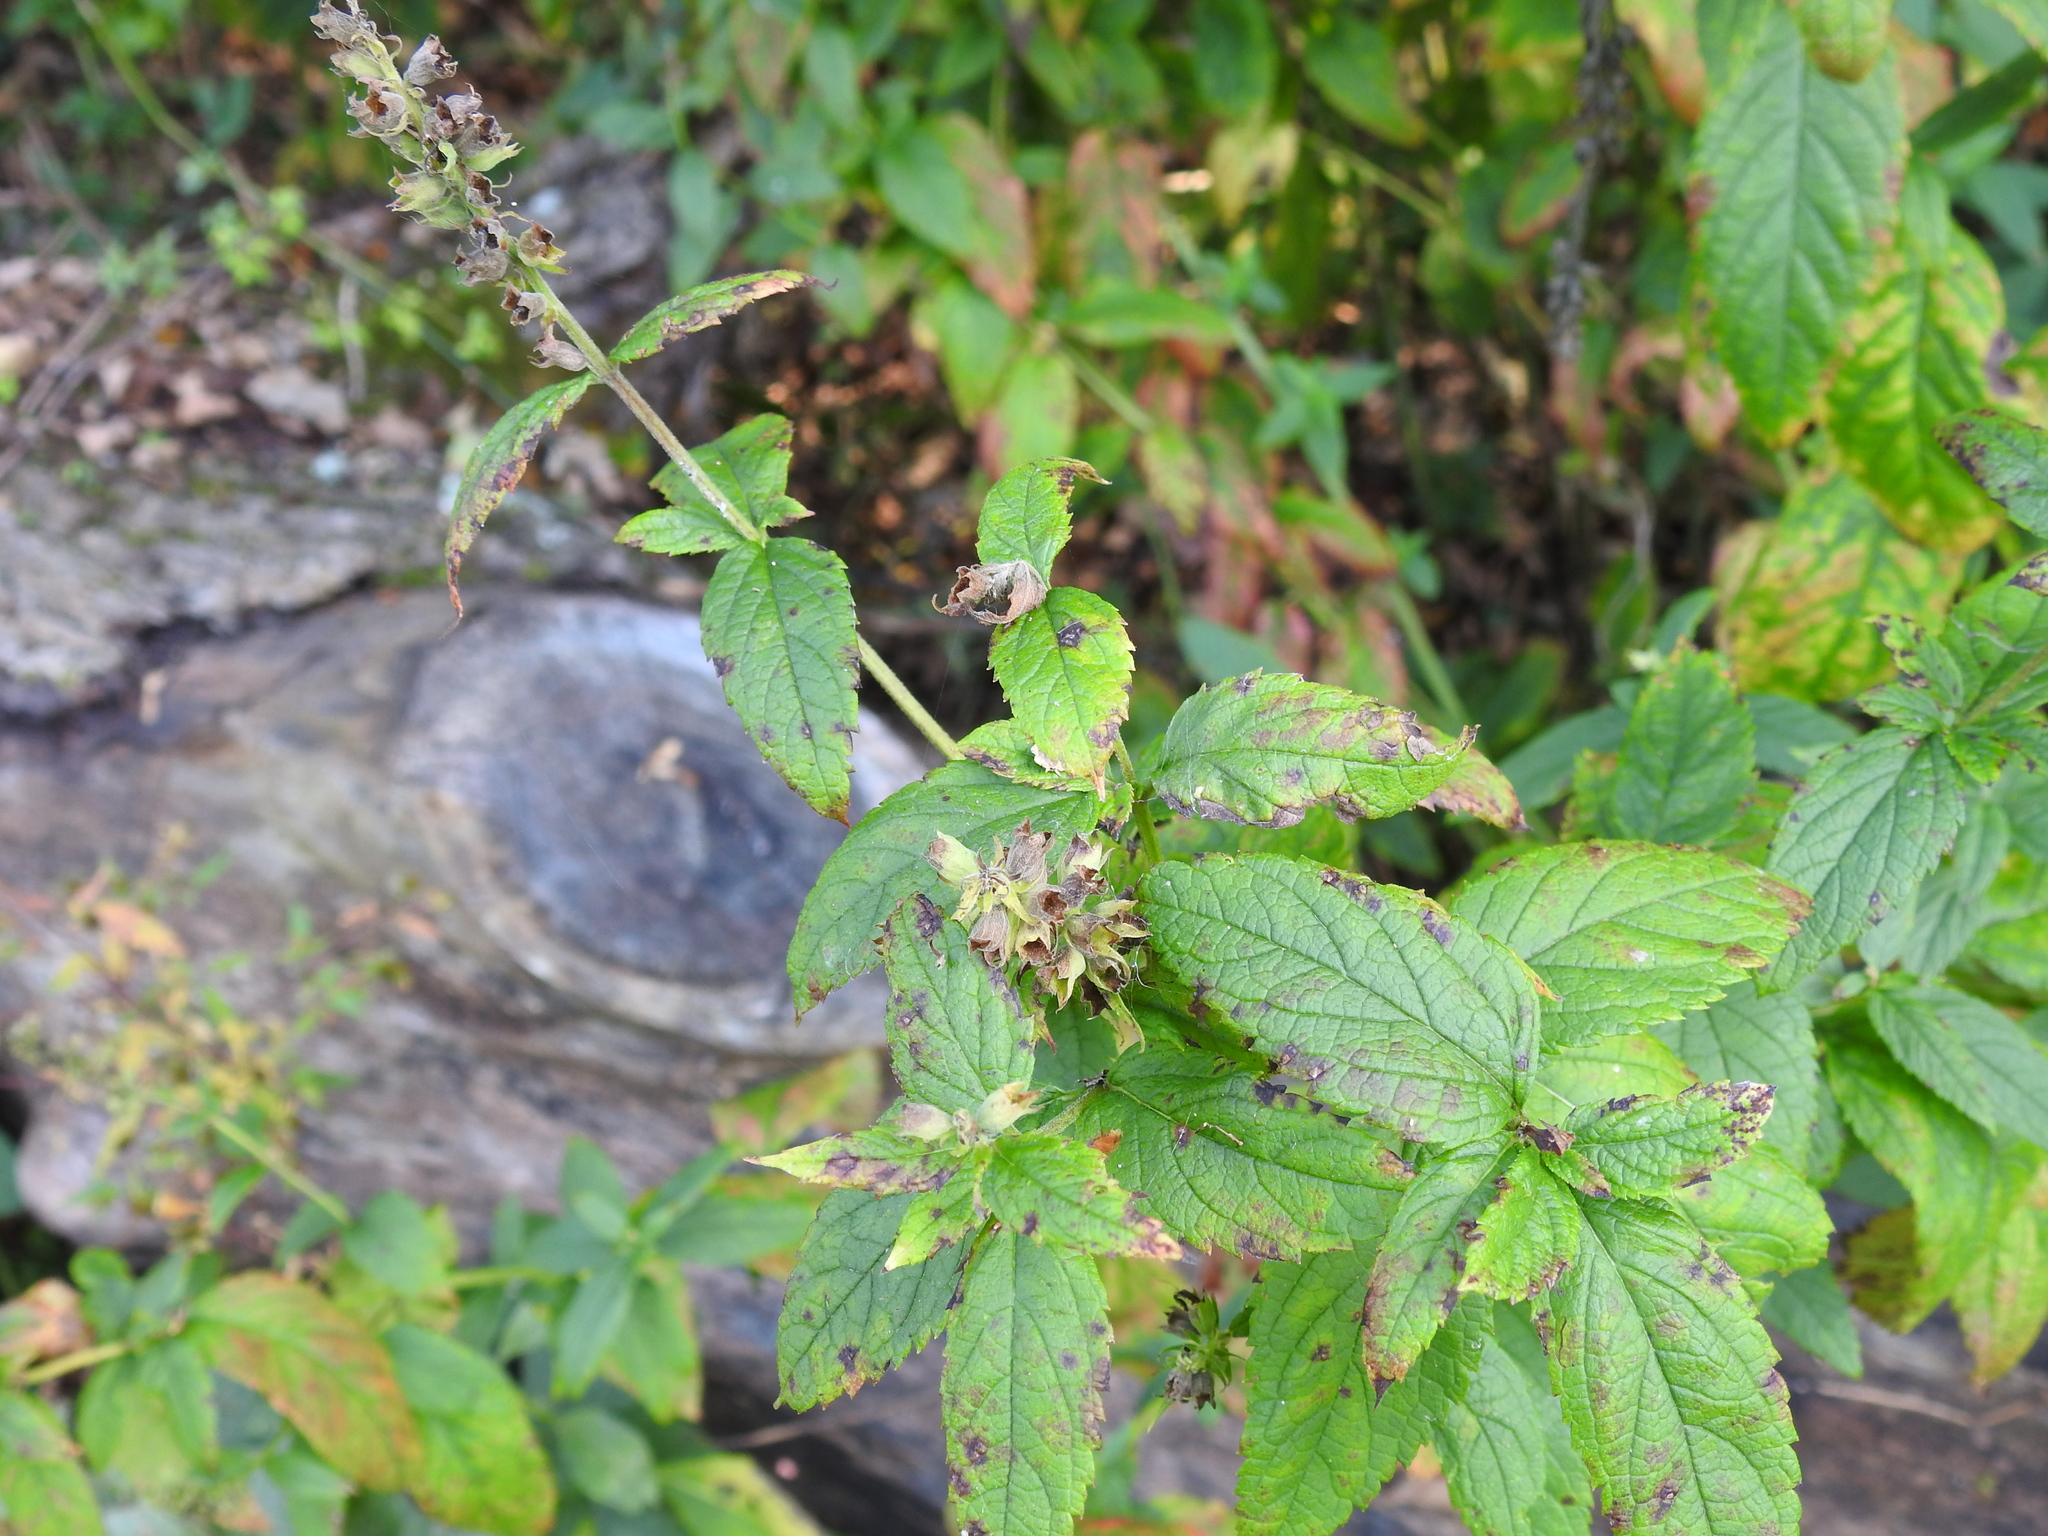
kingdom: Plantae
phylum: Tracheophyta
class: Magnoliopsida
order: Lamiales
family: Lamiaceae
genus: Teucrium
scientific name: Teucrium canadense
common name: American germander
